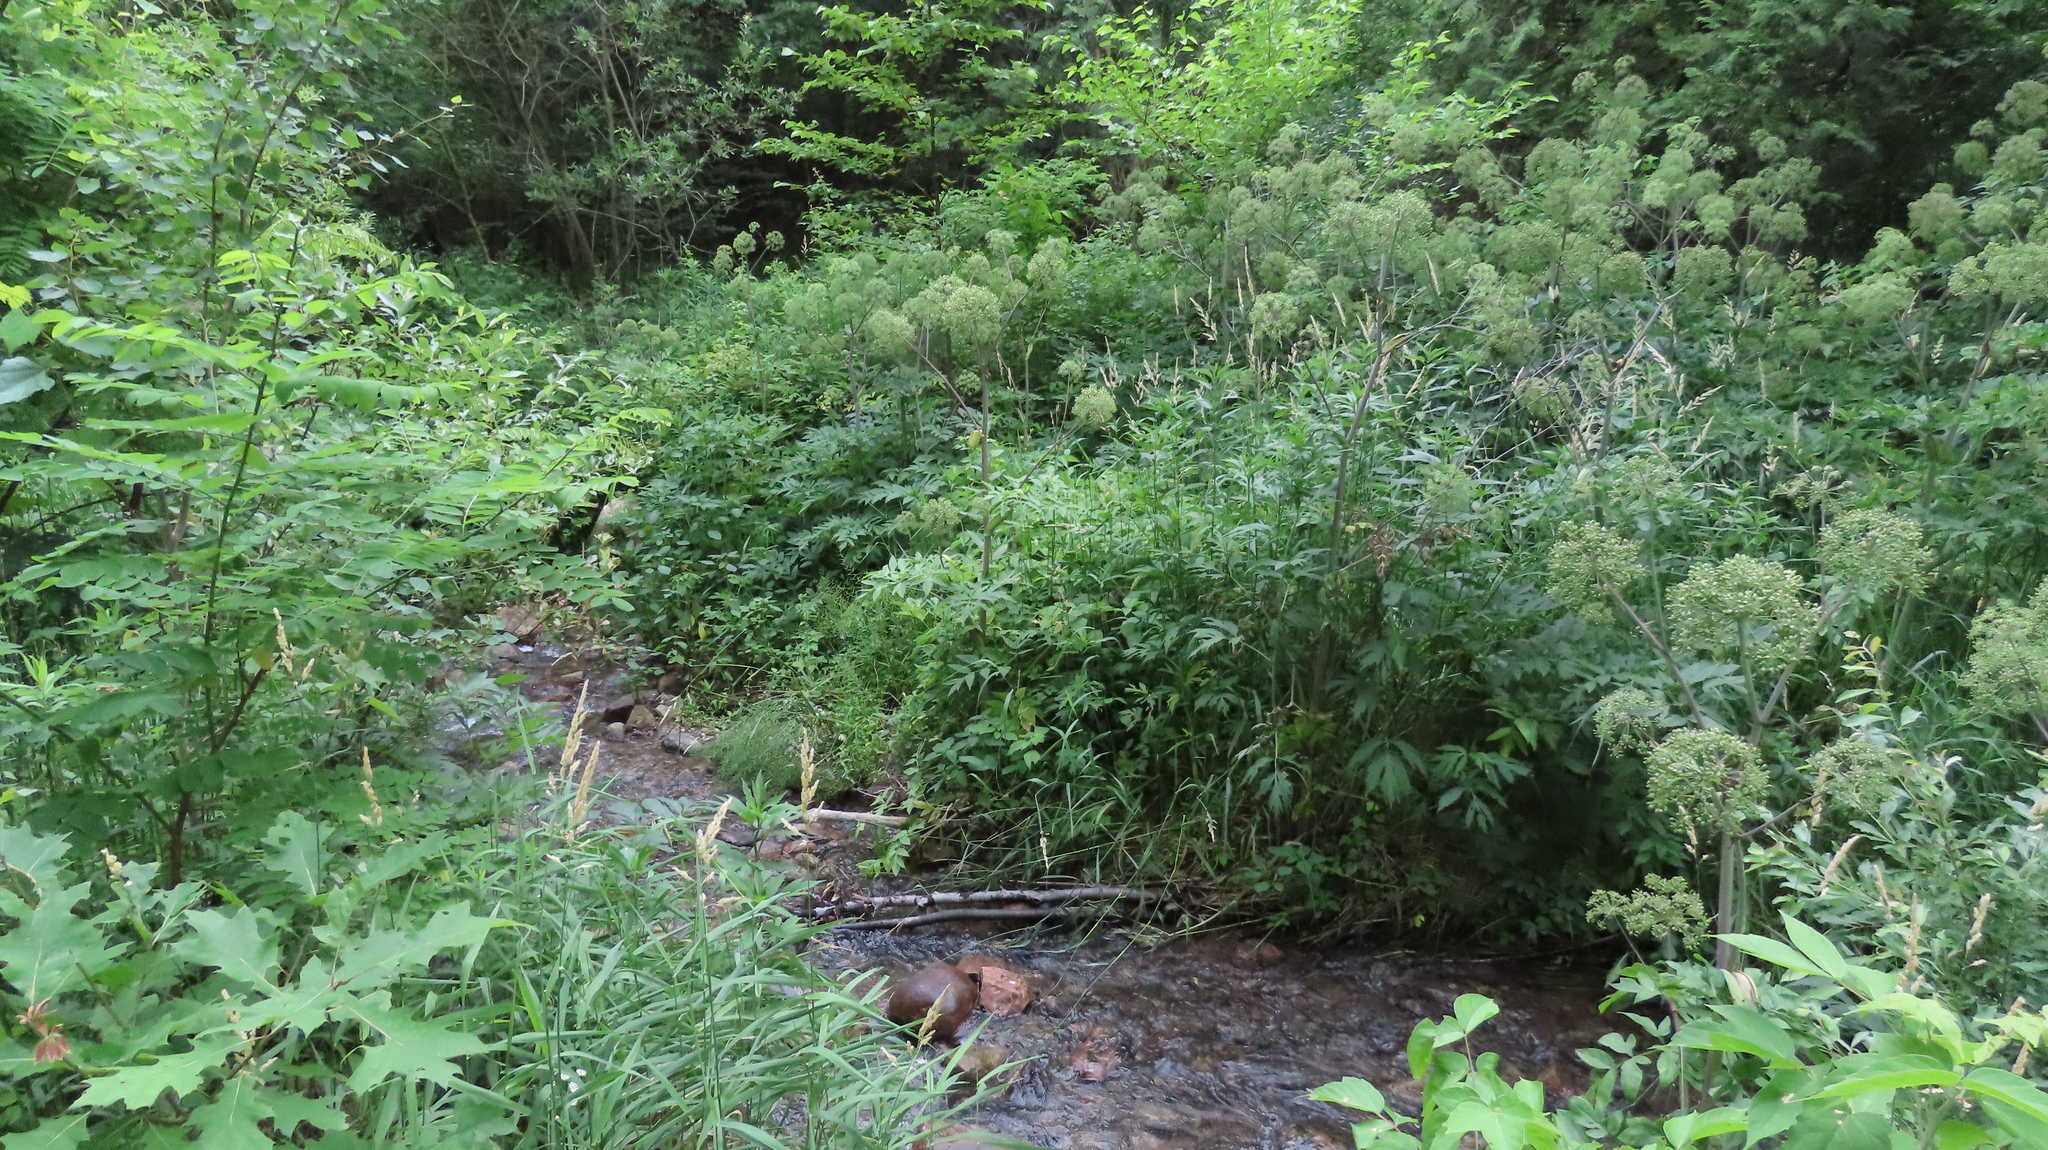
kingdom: Plantae
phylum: Tracheophyta
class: Magnoliopsida
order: Apiales
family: Apiaceae
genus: Angelica
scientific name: Angelica atropurpurea
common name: Great angelica
